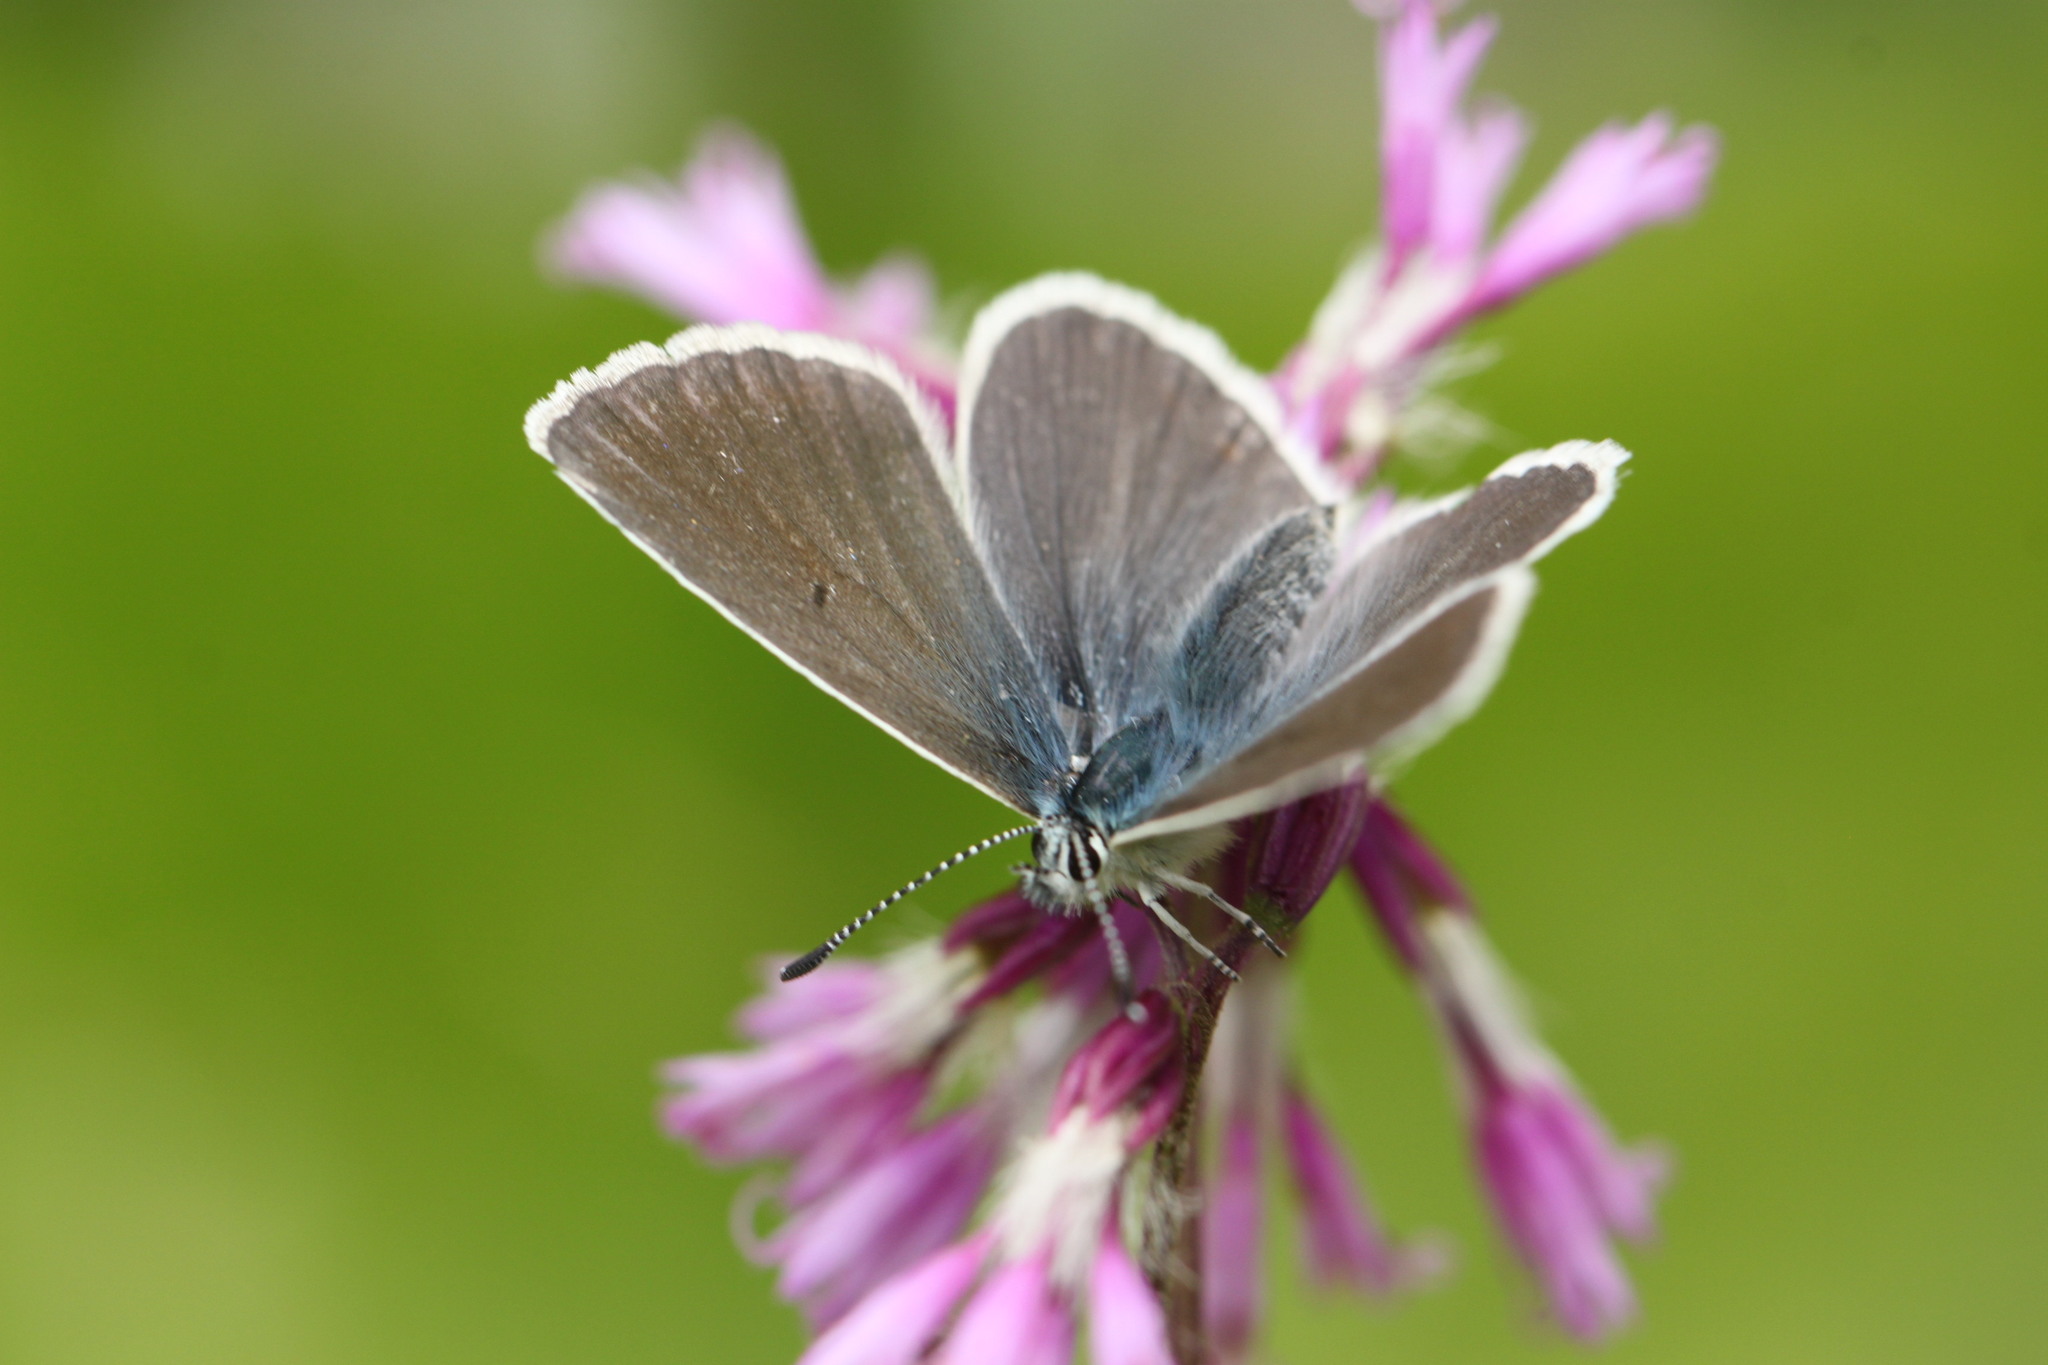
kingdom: Animalia
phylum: Arthropoda
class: Insecta
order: Lepidoptera
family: Lycaenidae
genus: Pseudoaricia
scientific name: Pseudoaricia nicias
